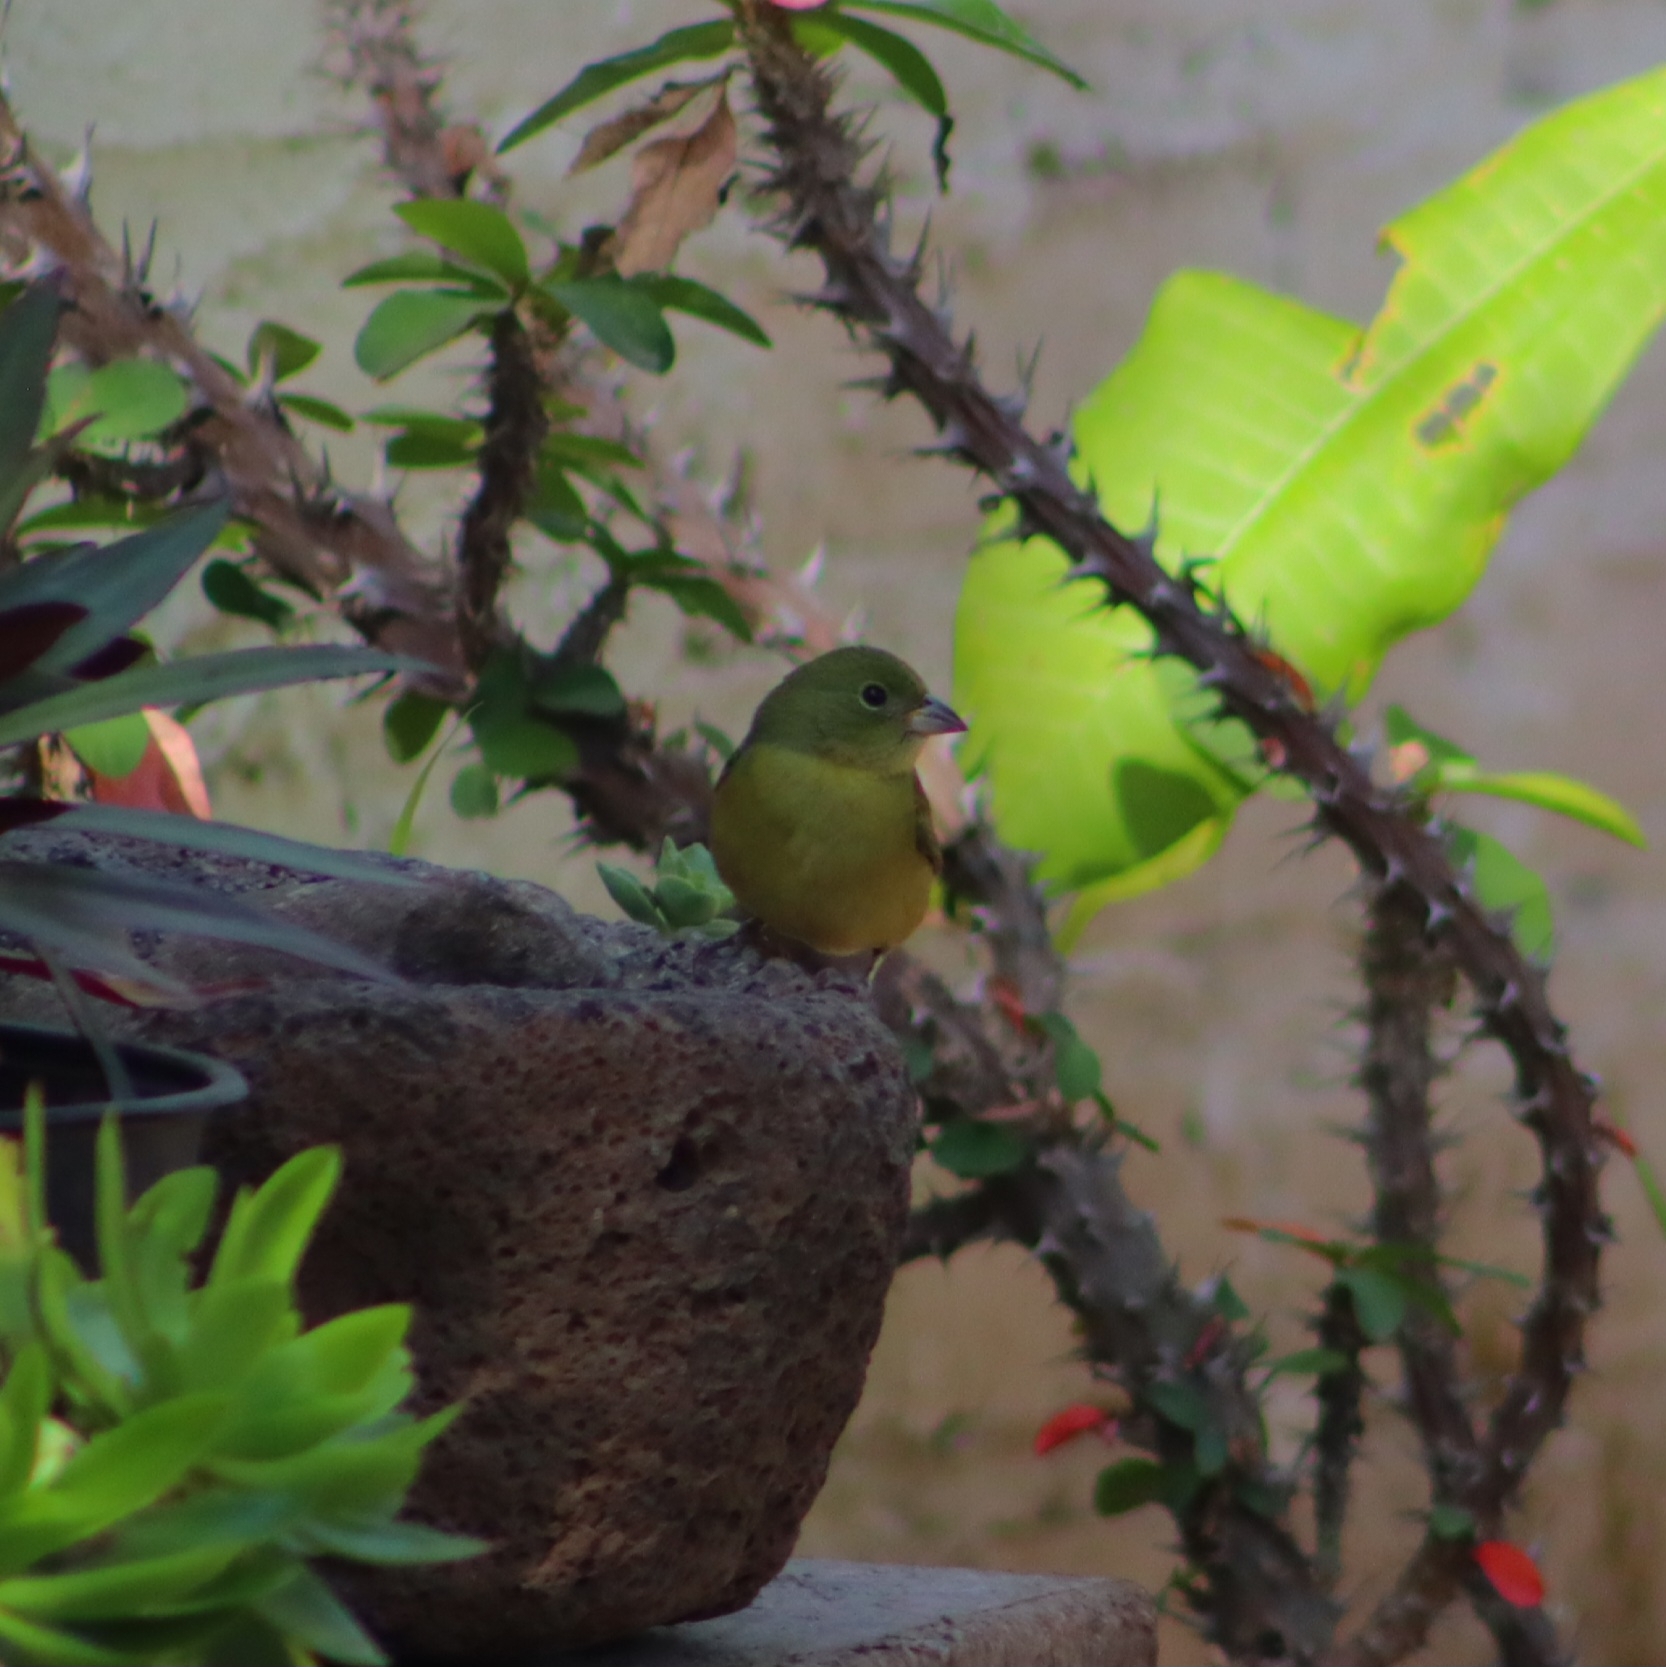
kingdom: Animalia
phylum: Chordata
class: Aves
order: Passeriformes
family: Cardinalidae
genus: Passerina
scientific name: Passerina ciris
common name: Painted bunting
